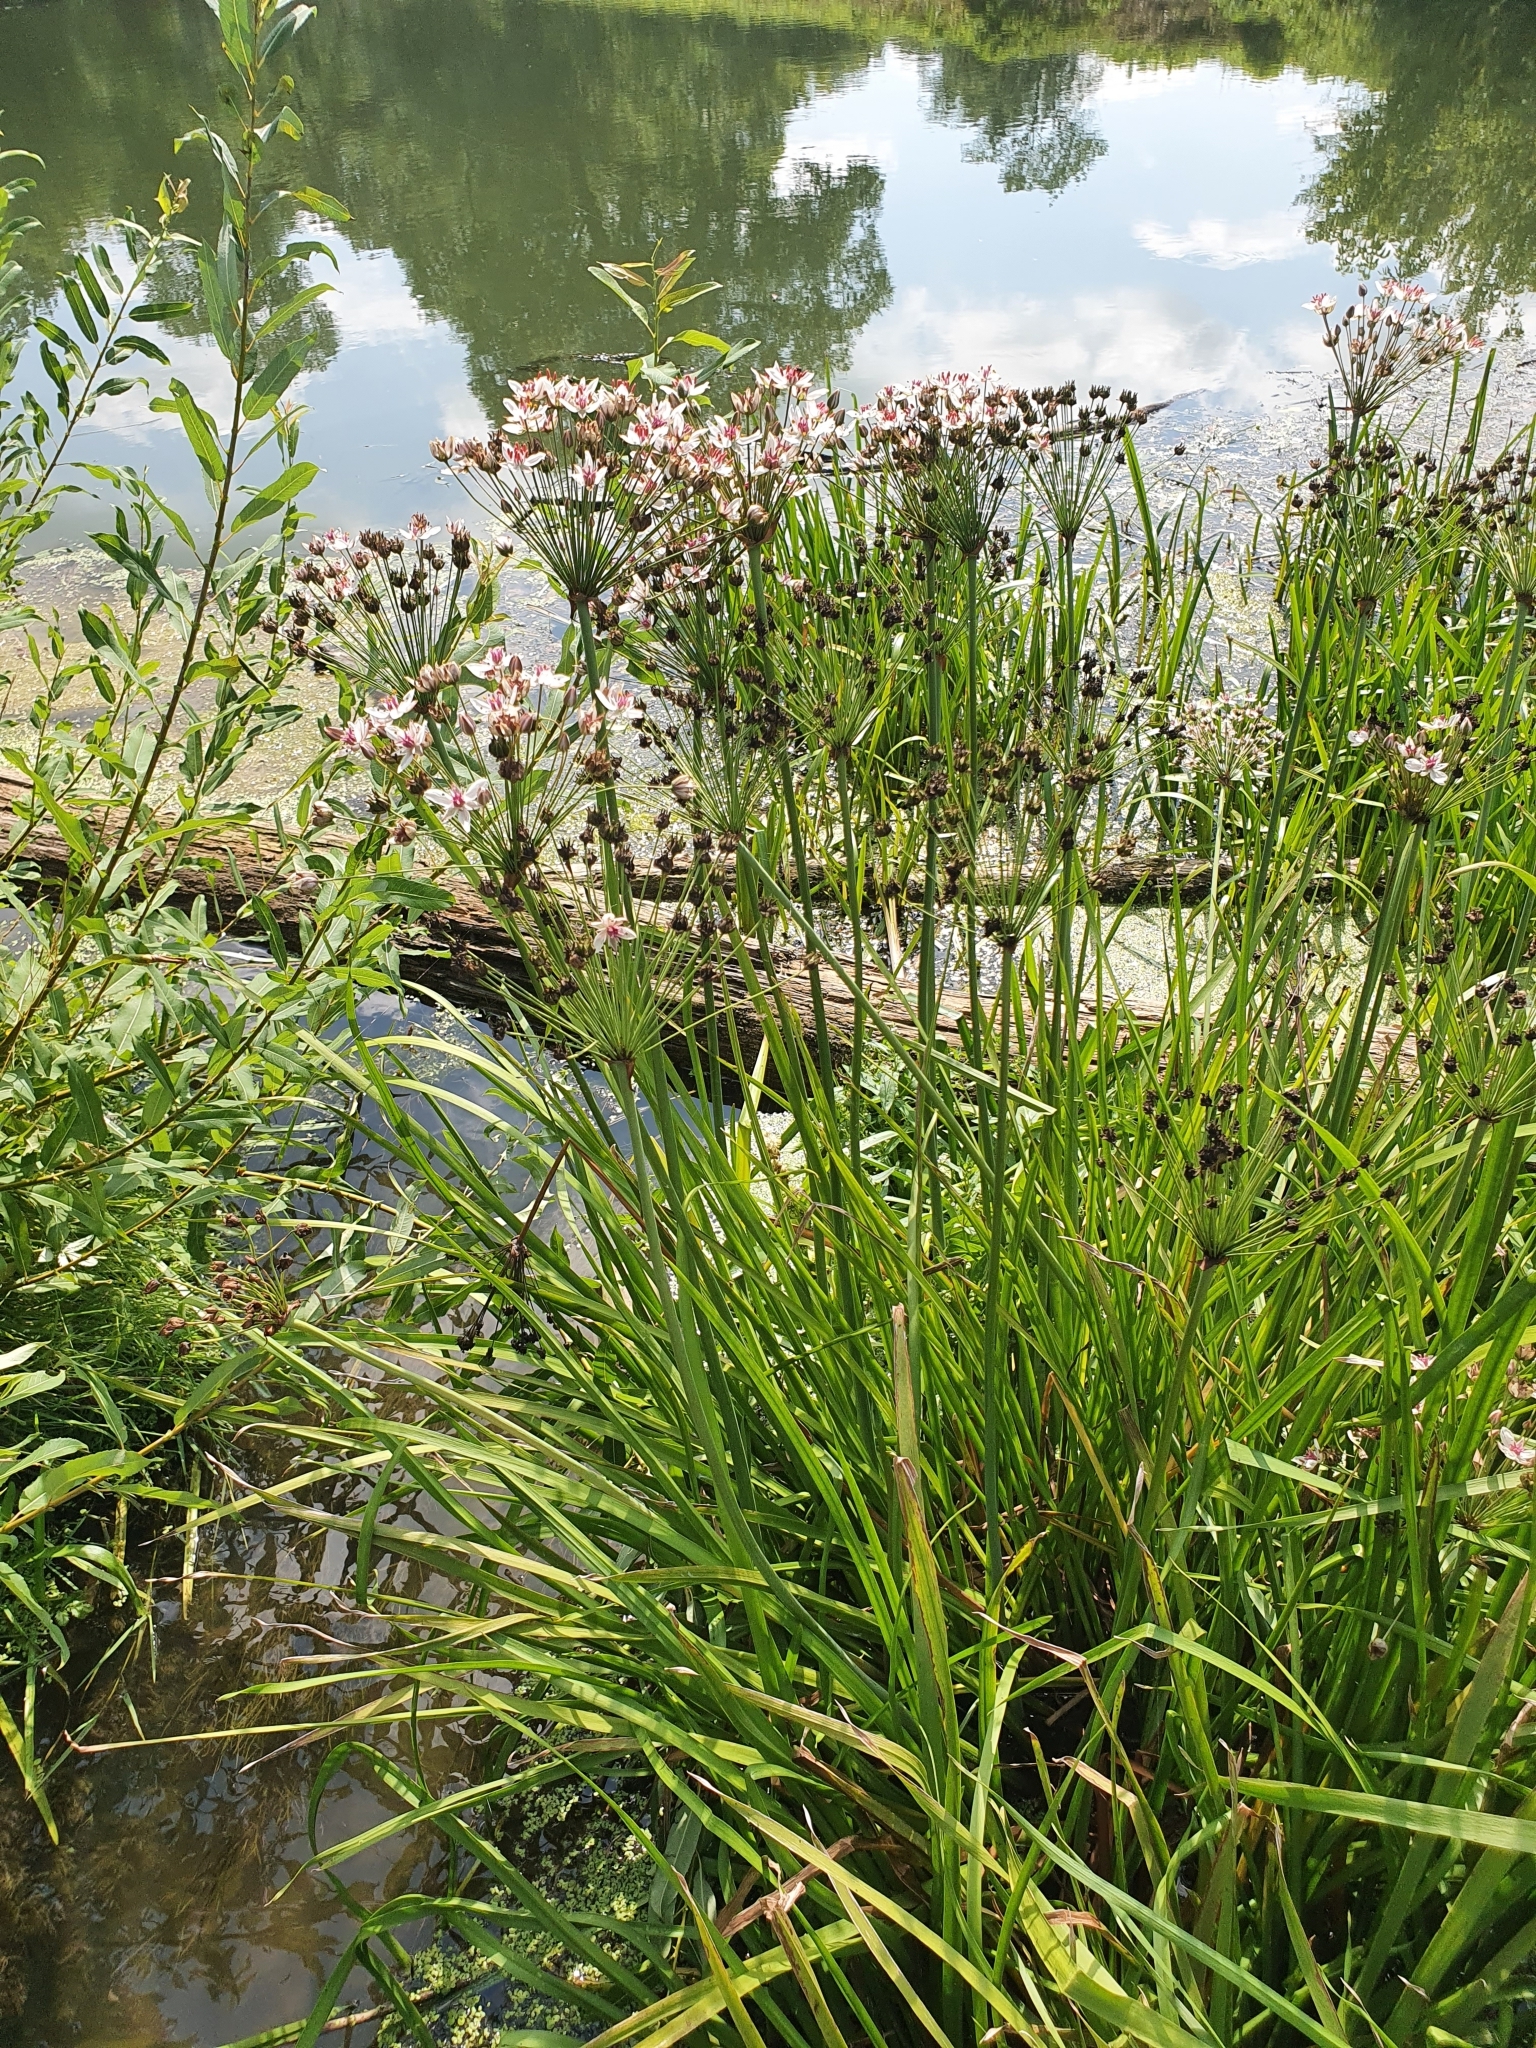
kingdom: Plantae
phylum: Tracheophyta
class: Liliopsida
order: Alismatales
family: Butomaceae
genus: Butomus
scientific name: Butomus umbellatus
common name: Flowering-rush
